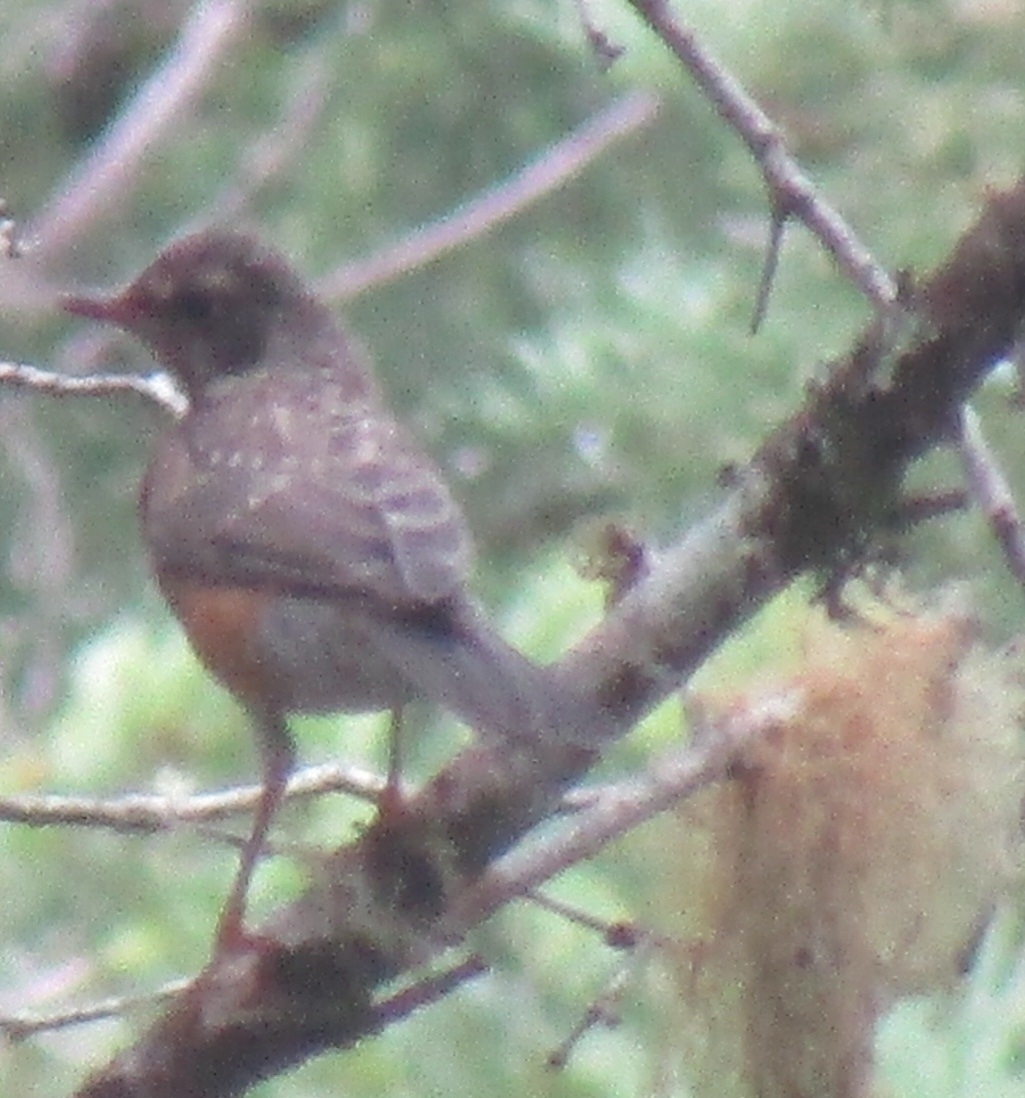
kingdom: Animalia
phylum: Chordata
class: Aves
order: Passeriformes
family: Turdidae
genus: Turdus
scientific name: Turdus migratorius
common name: American robin
